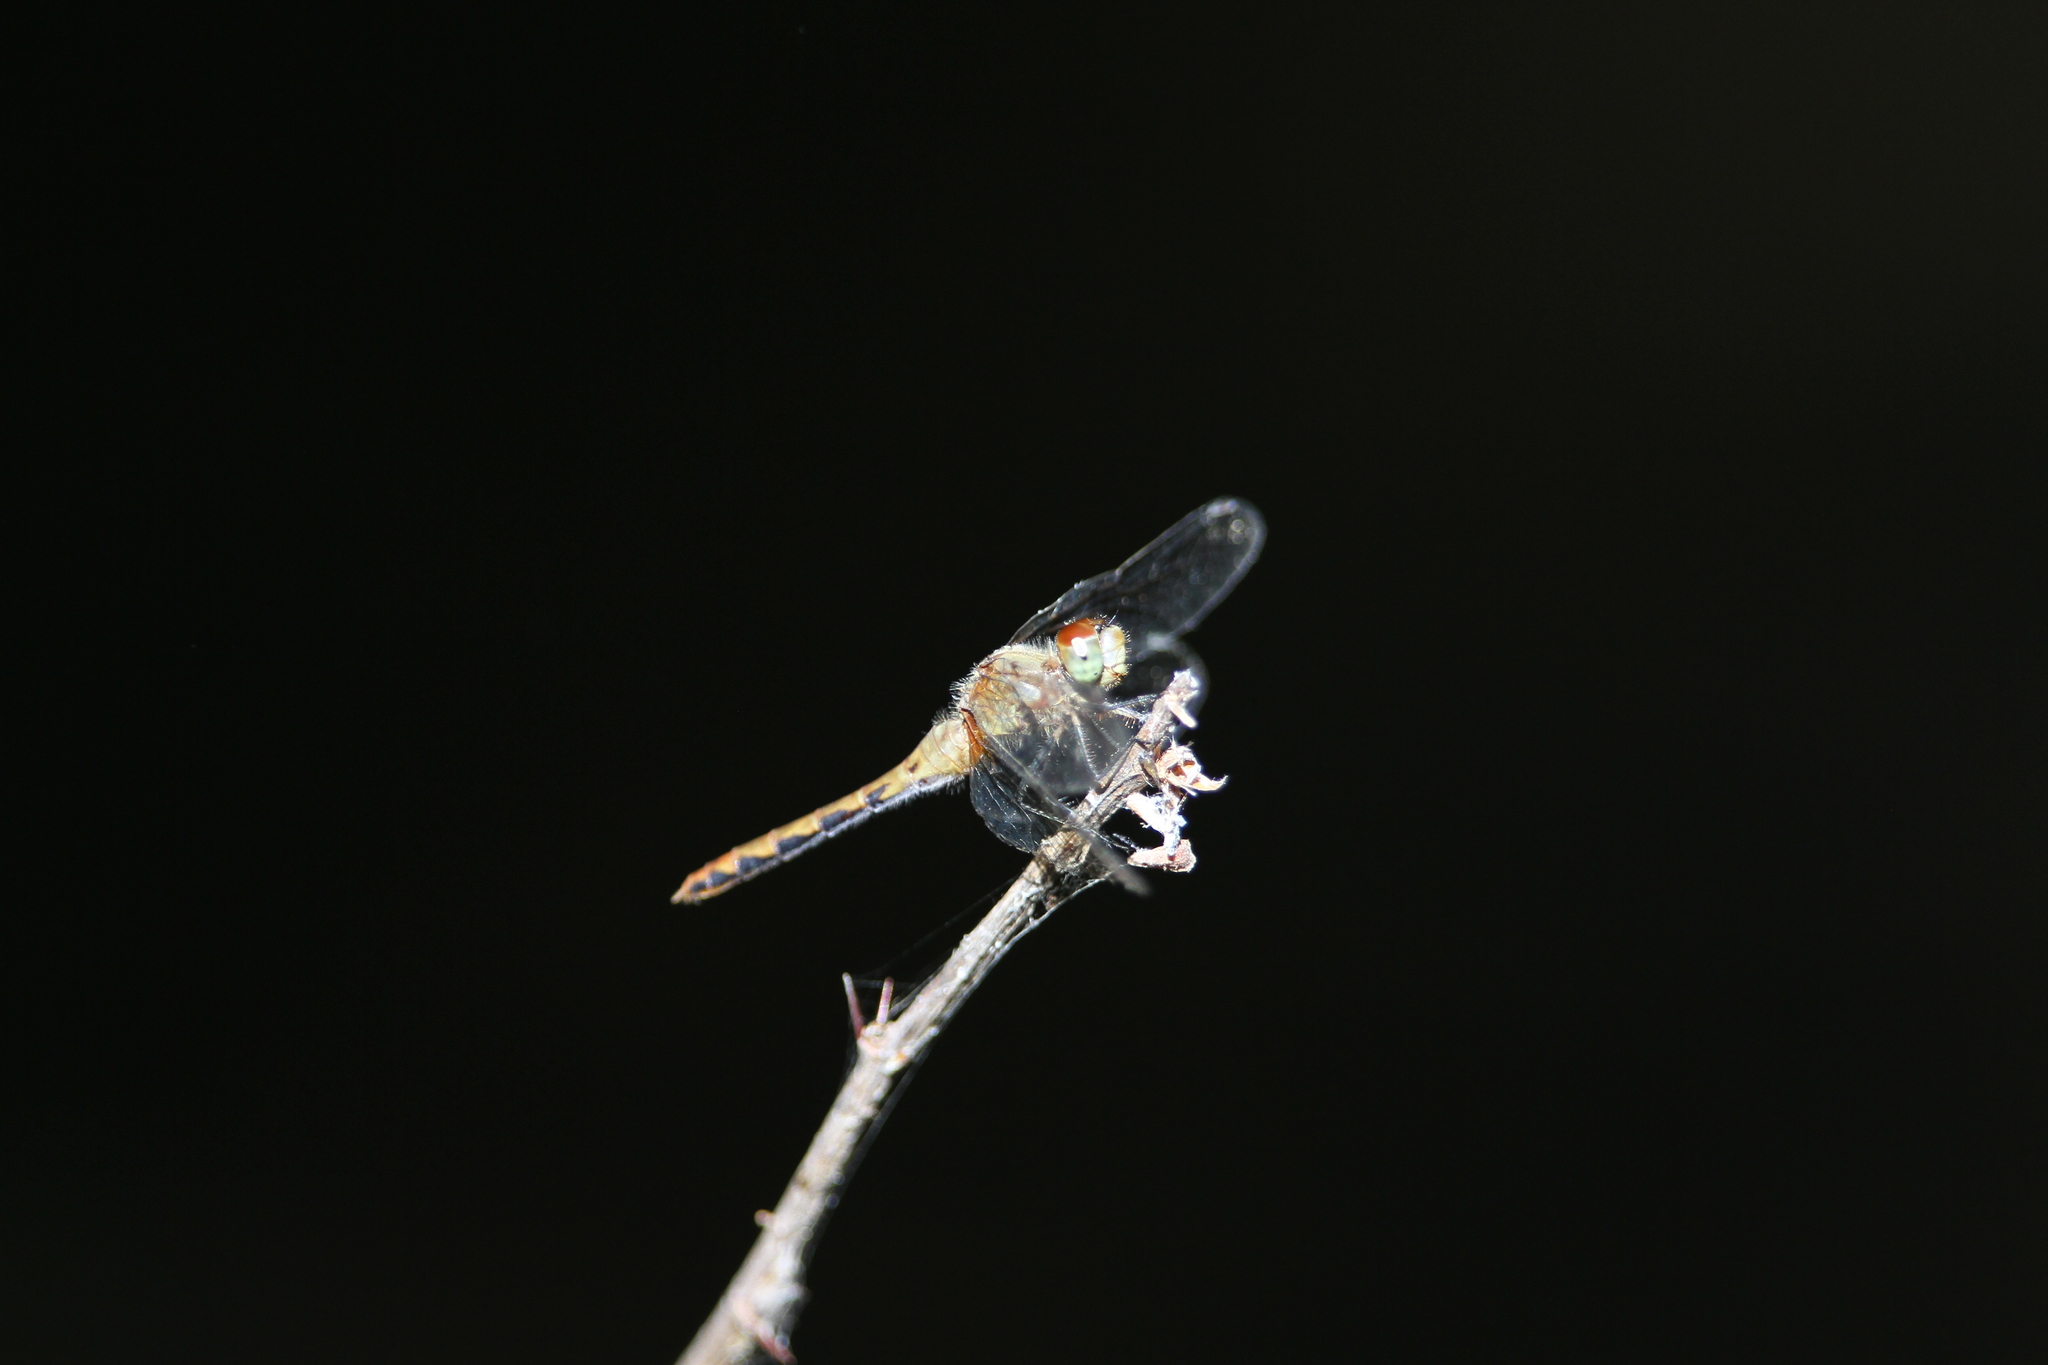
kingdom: Animalia
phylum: Arthropoda
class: Insecta
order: Odonata
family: Libellulidae
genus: Sympetrum
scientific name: Sympetrum obtrusum
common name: White-faced meadowhawk
